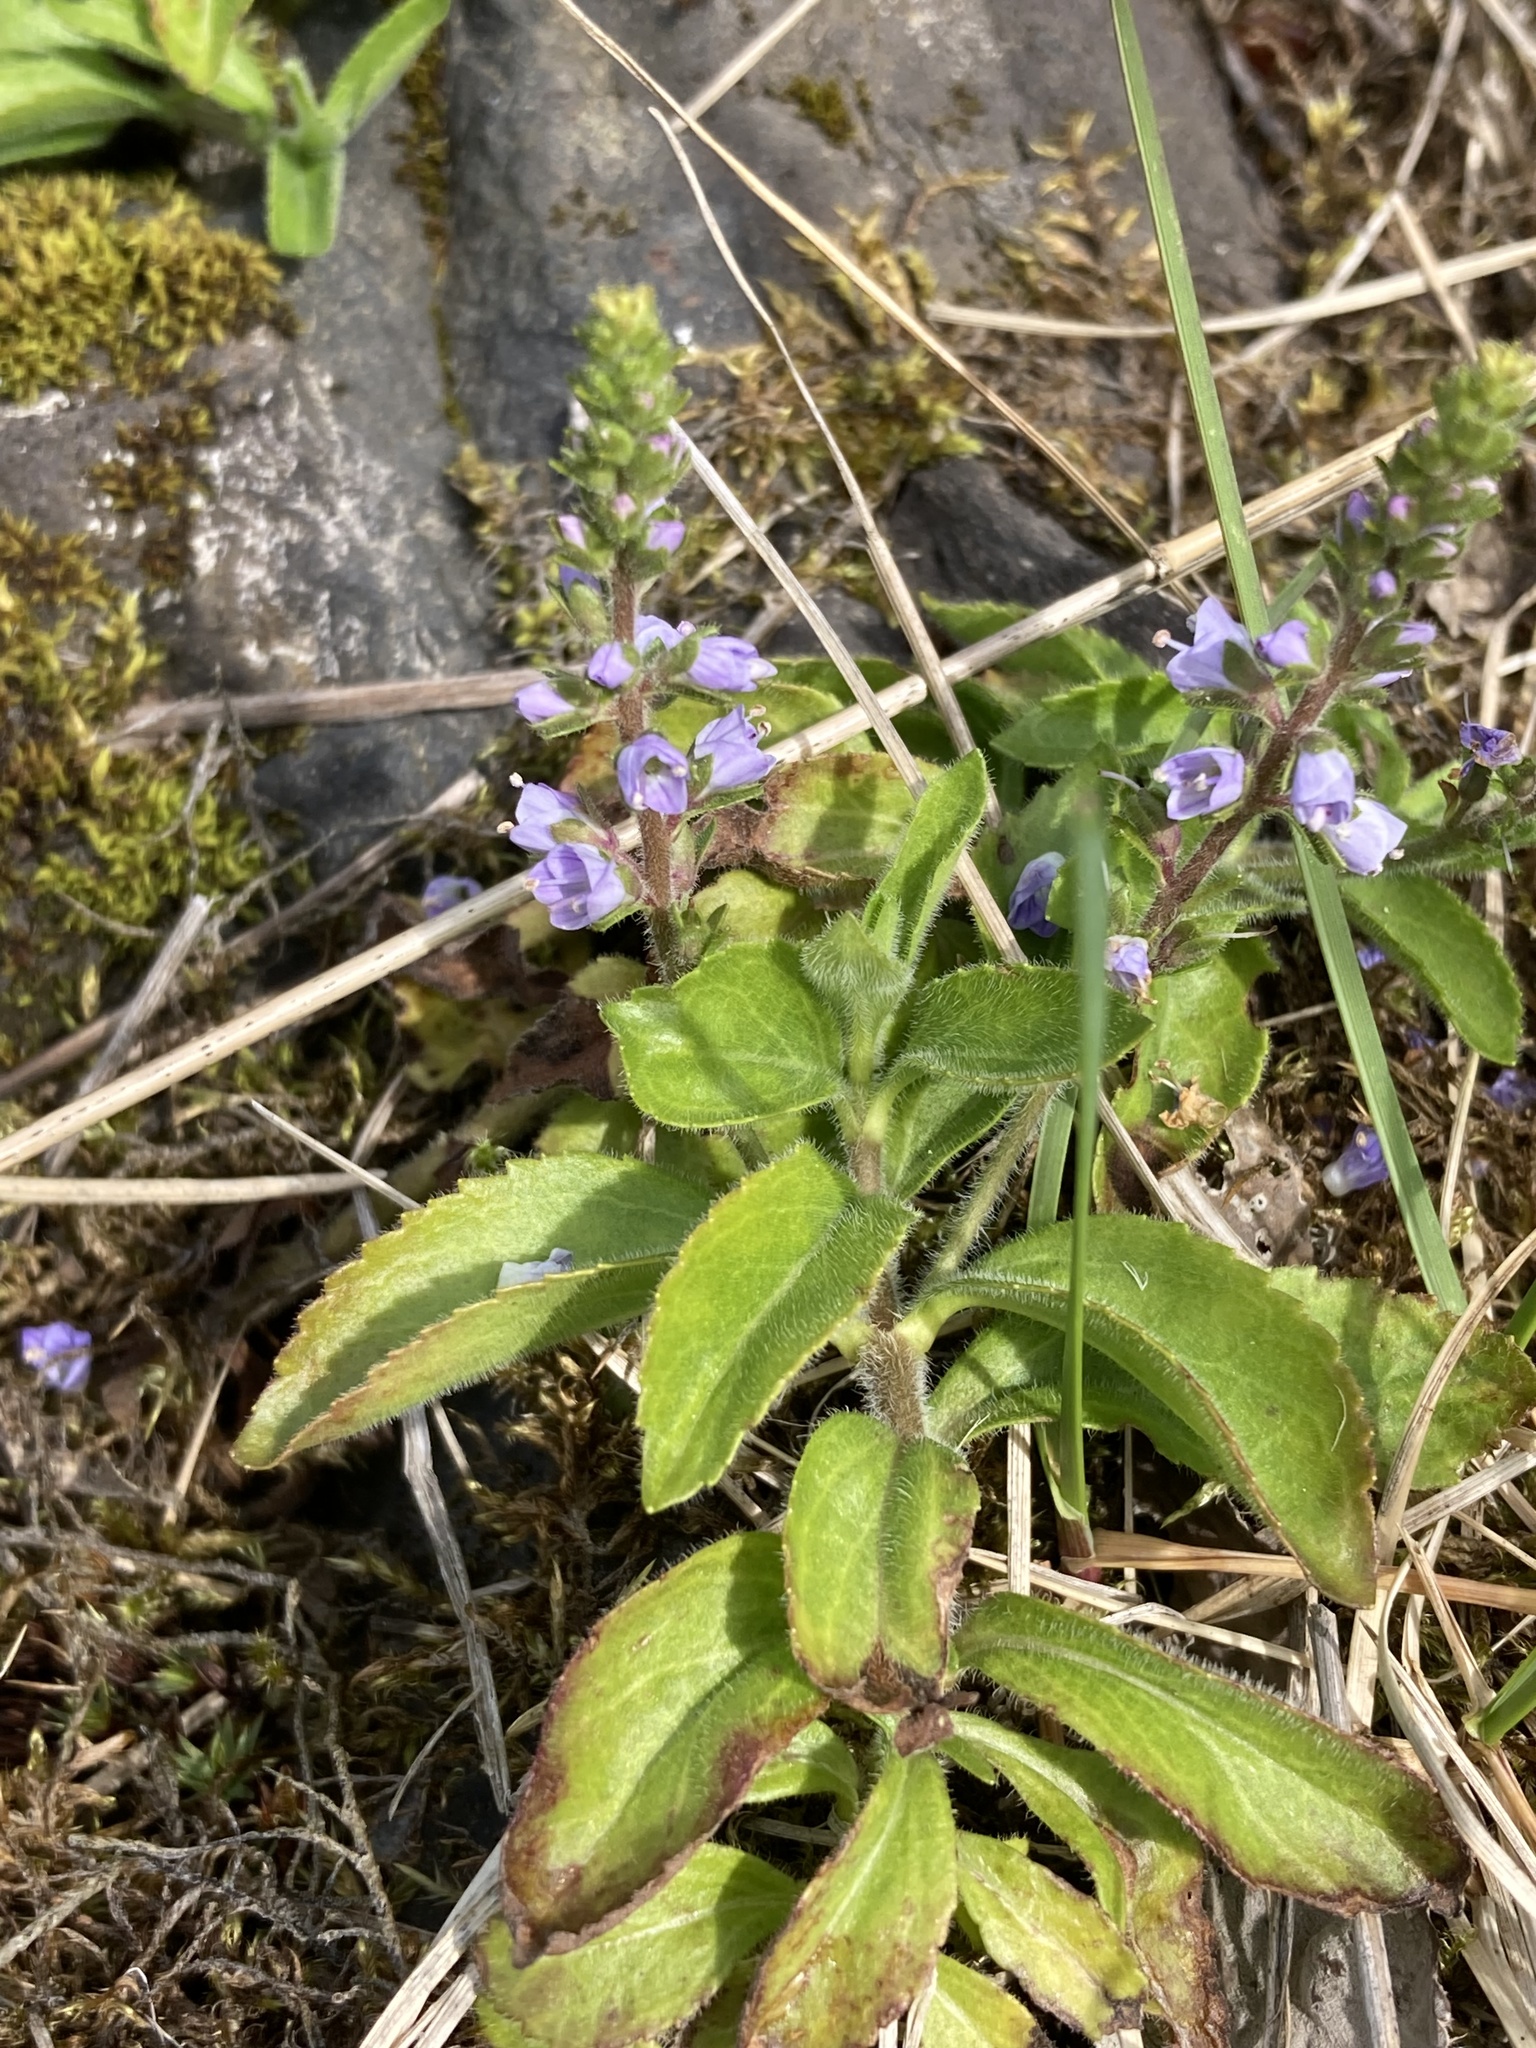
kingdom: Plantae
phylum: Tracheophyta
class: Magnoliopsida
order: Lamiales
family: Plantaginaceae
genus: Veronica
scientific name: Veronica officinalis
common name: Common speedwell
